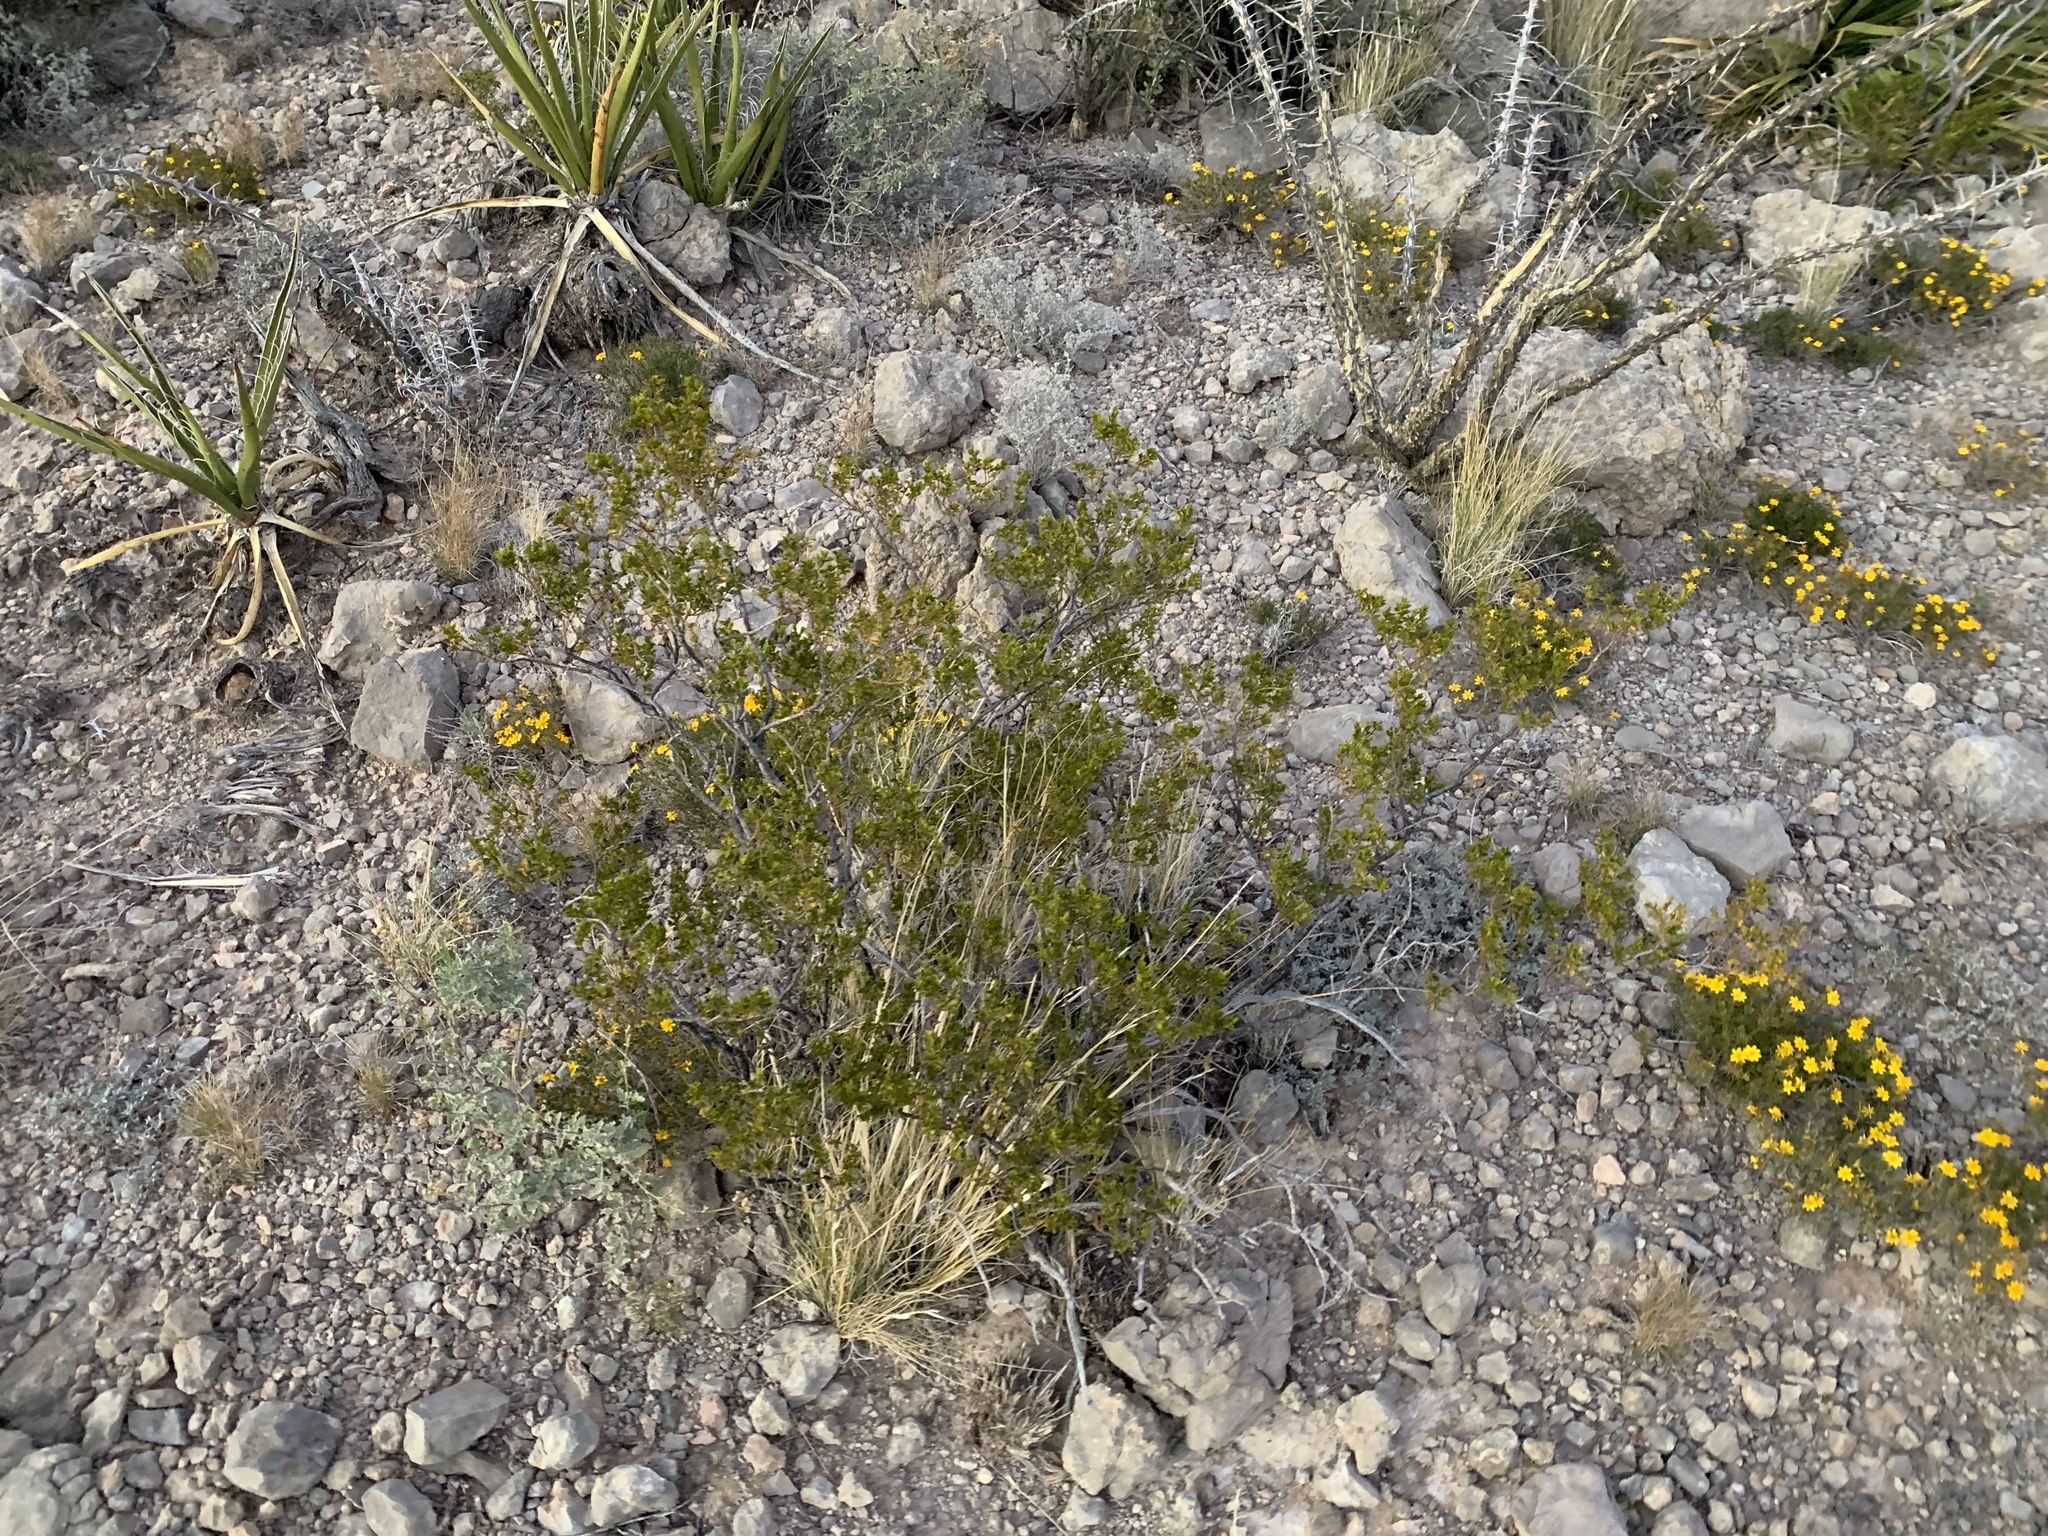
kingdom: Plantae
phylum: Tracheophyta
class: Magnoliopsida
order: Zygophyllales
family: Zygophyllaceae
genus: Larrea
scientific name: Larrea tridentata
